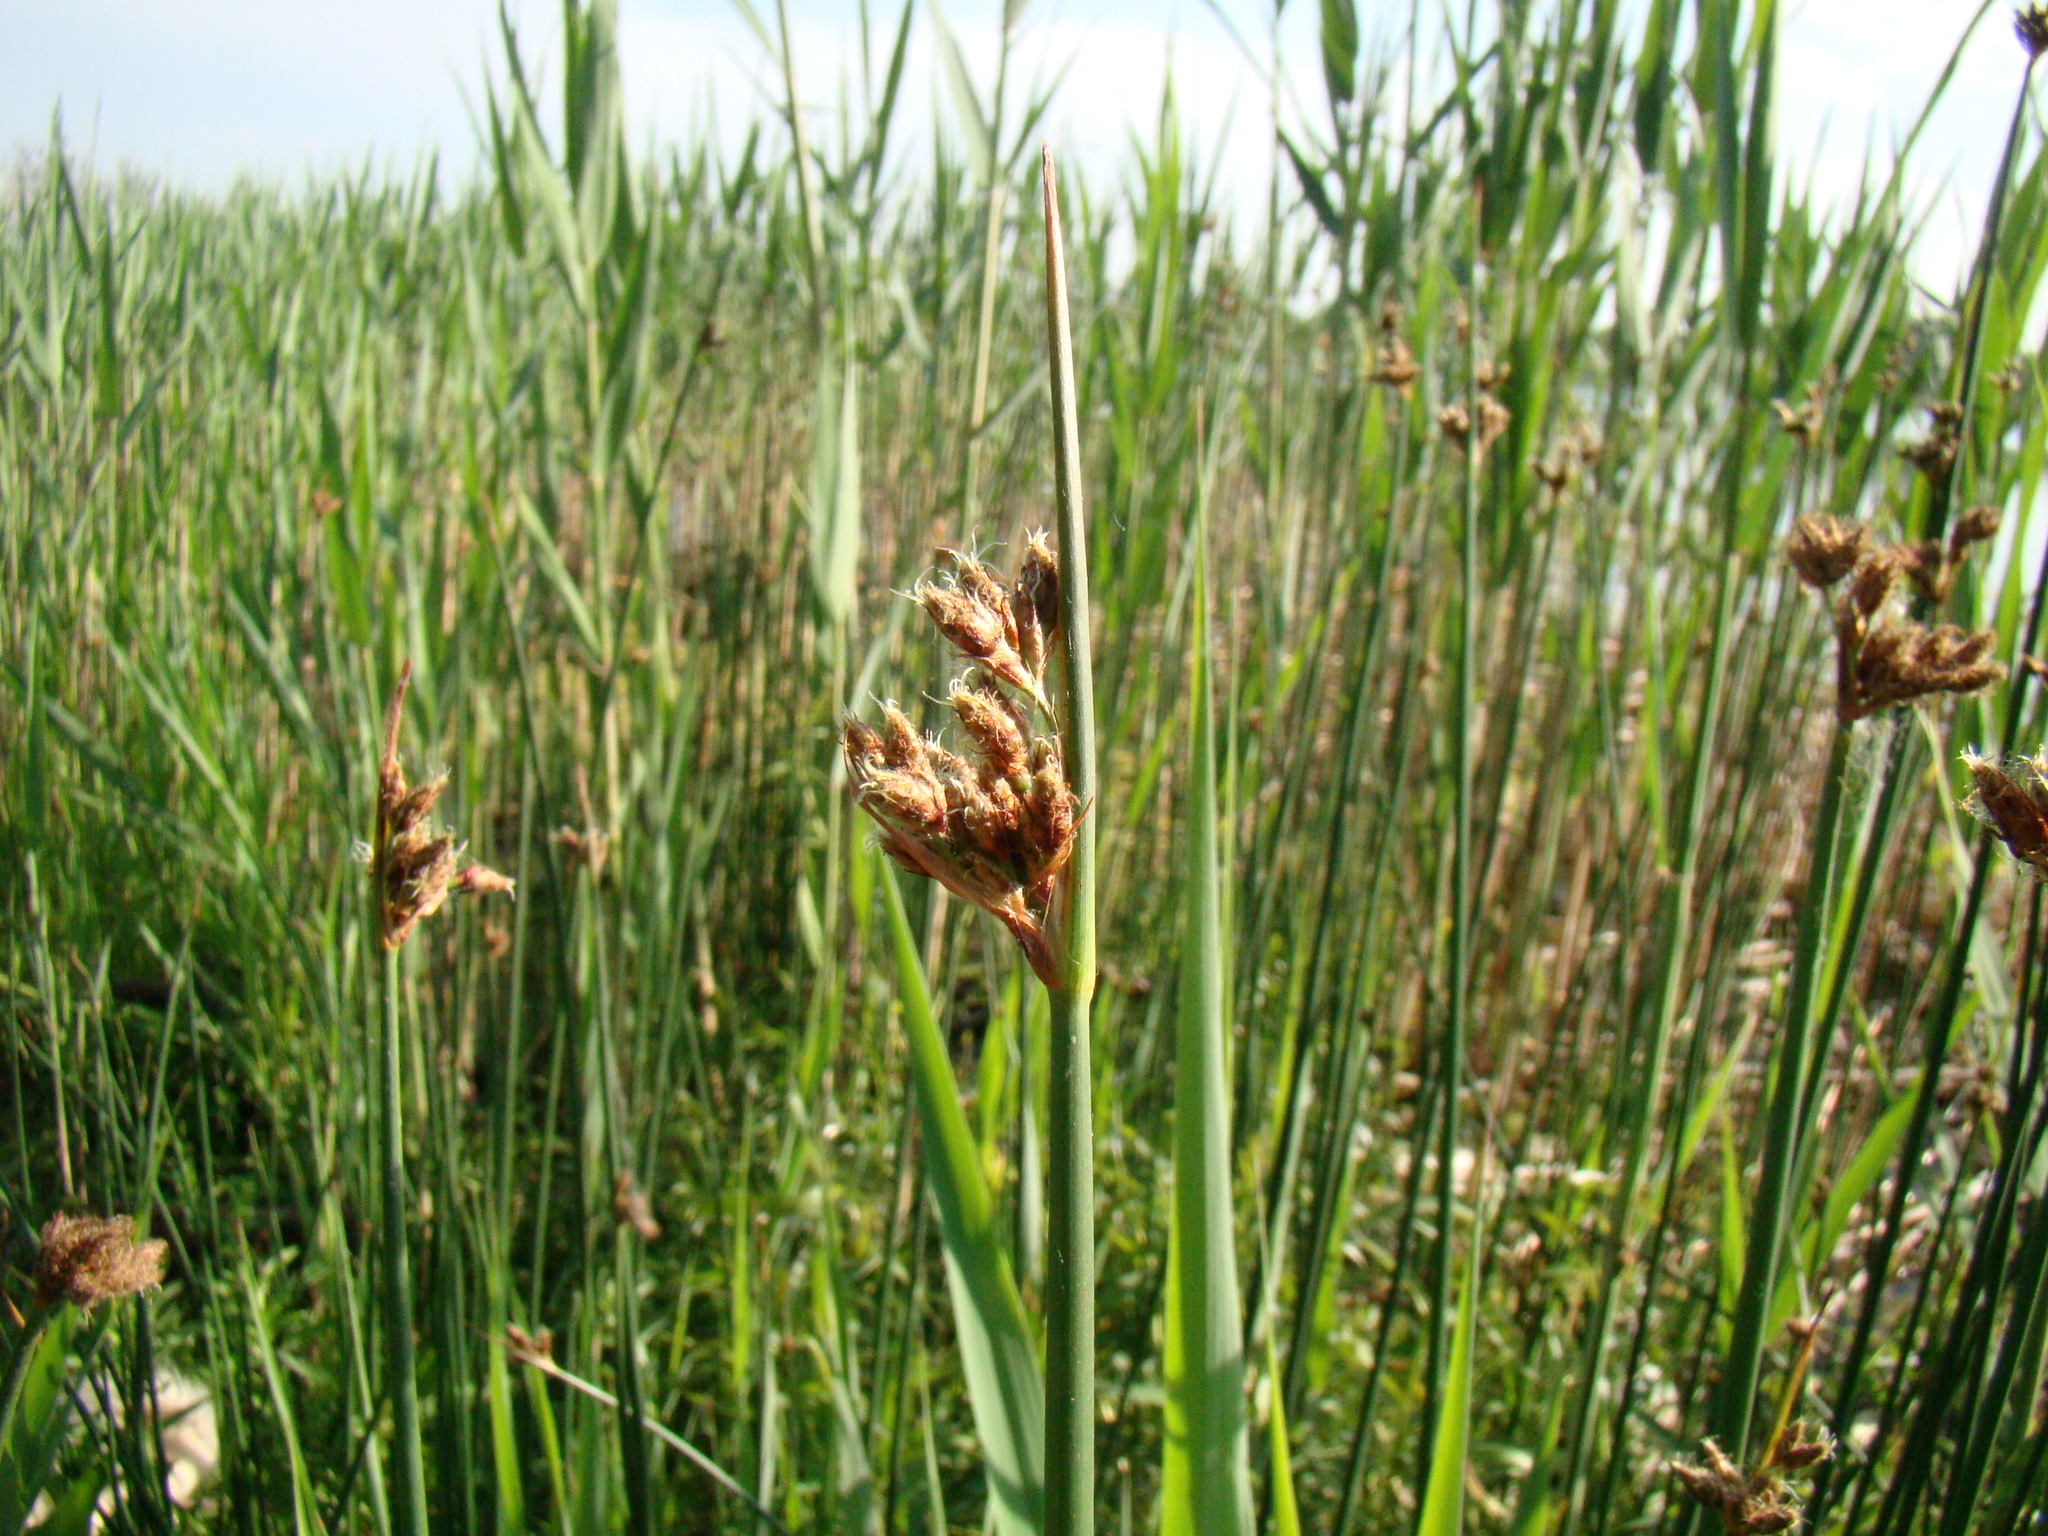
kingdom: Plantae
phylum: Tracheophyta
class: Liliopsida
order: Poales
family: Cyperaceae
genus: Schoenoplectus
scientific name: Schoenoplectus lacustris
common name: Common club-rush
